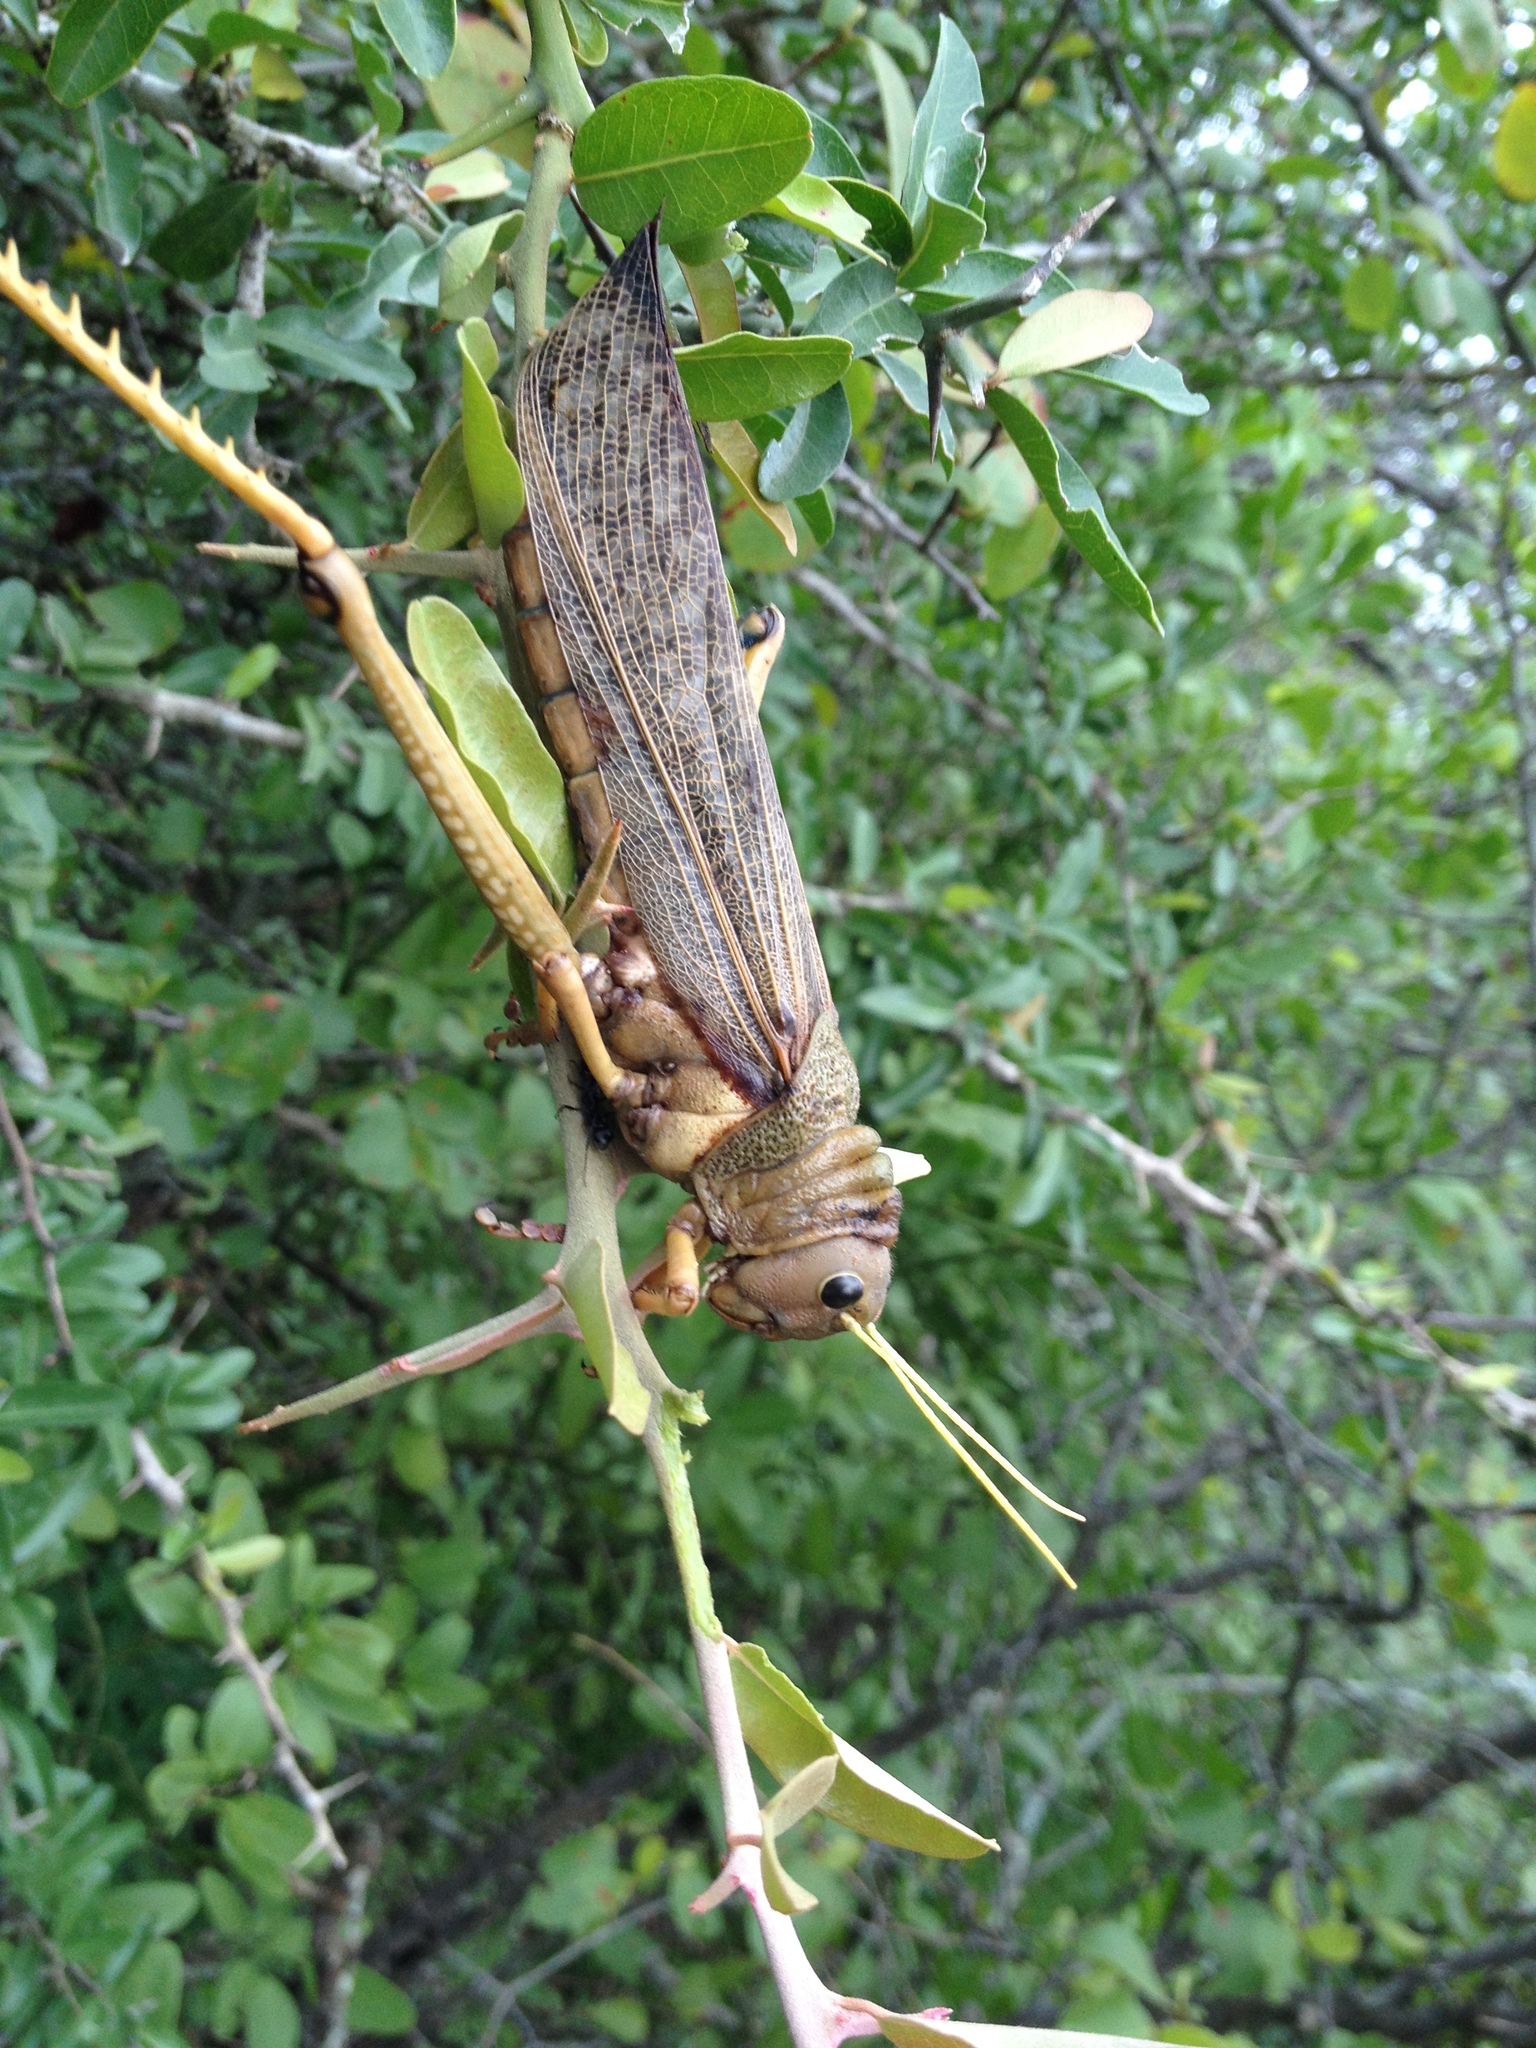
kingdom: Animalia
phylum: Arthropoda
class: Insecta
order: Orthoptera
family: Romaleidae
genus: Tropidacris
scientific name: Tropidacris collaris
